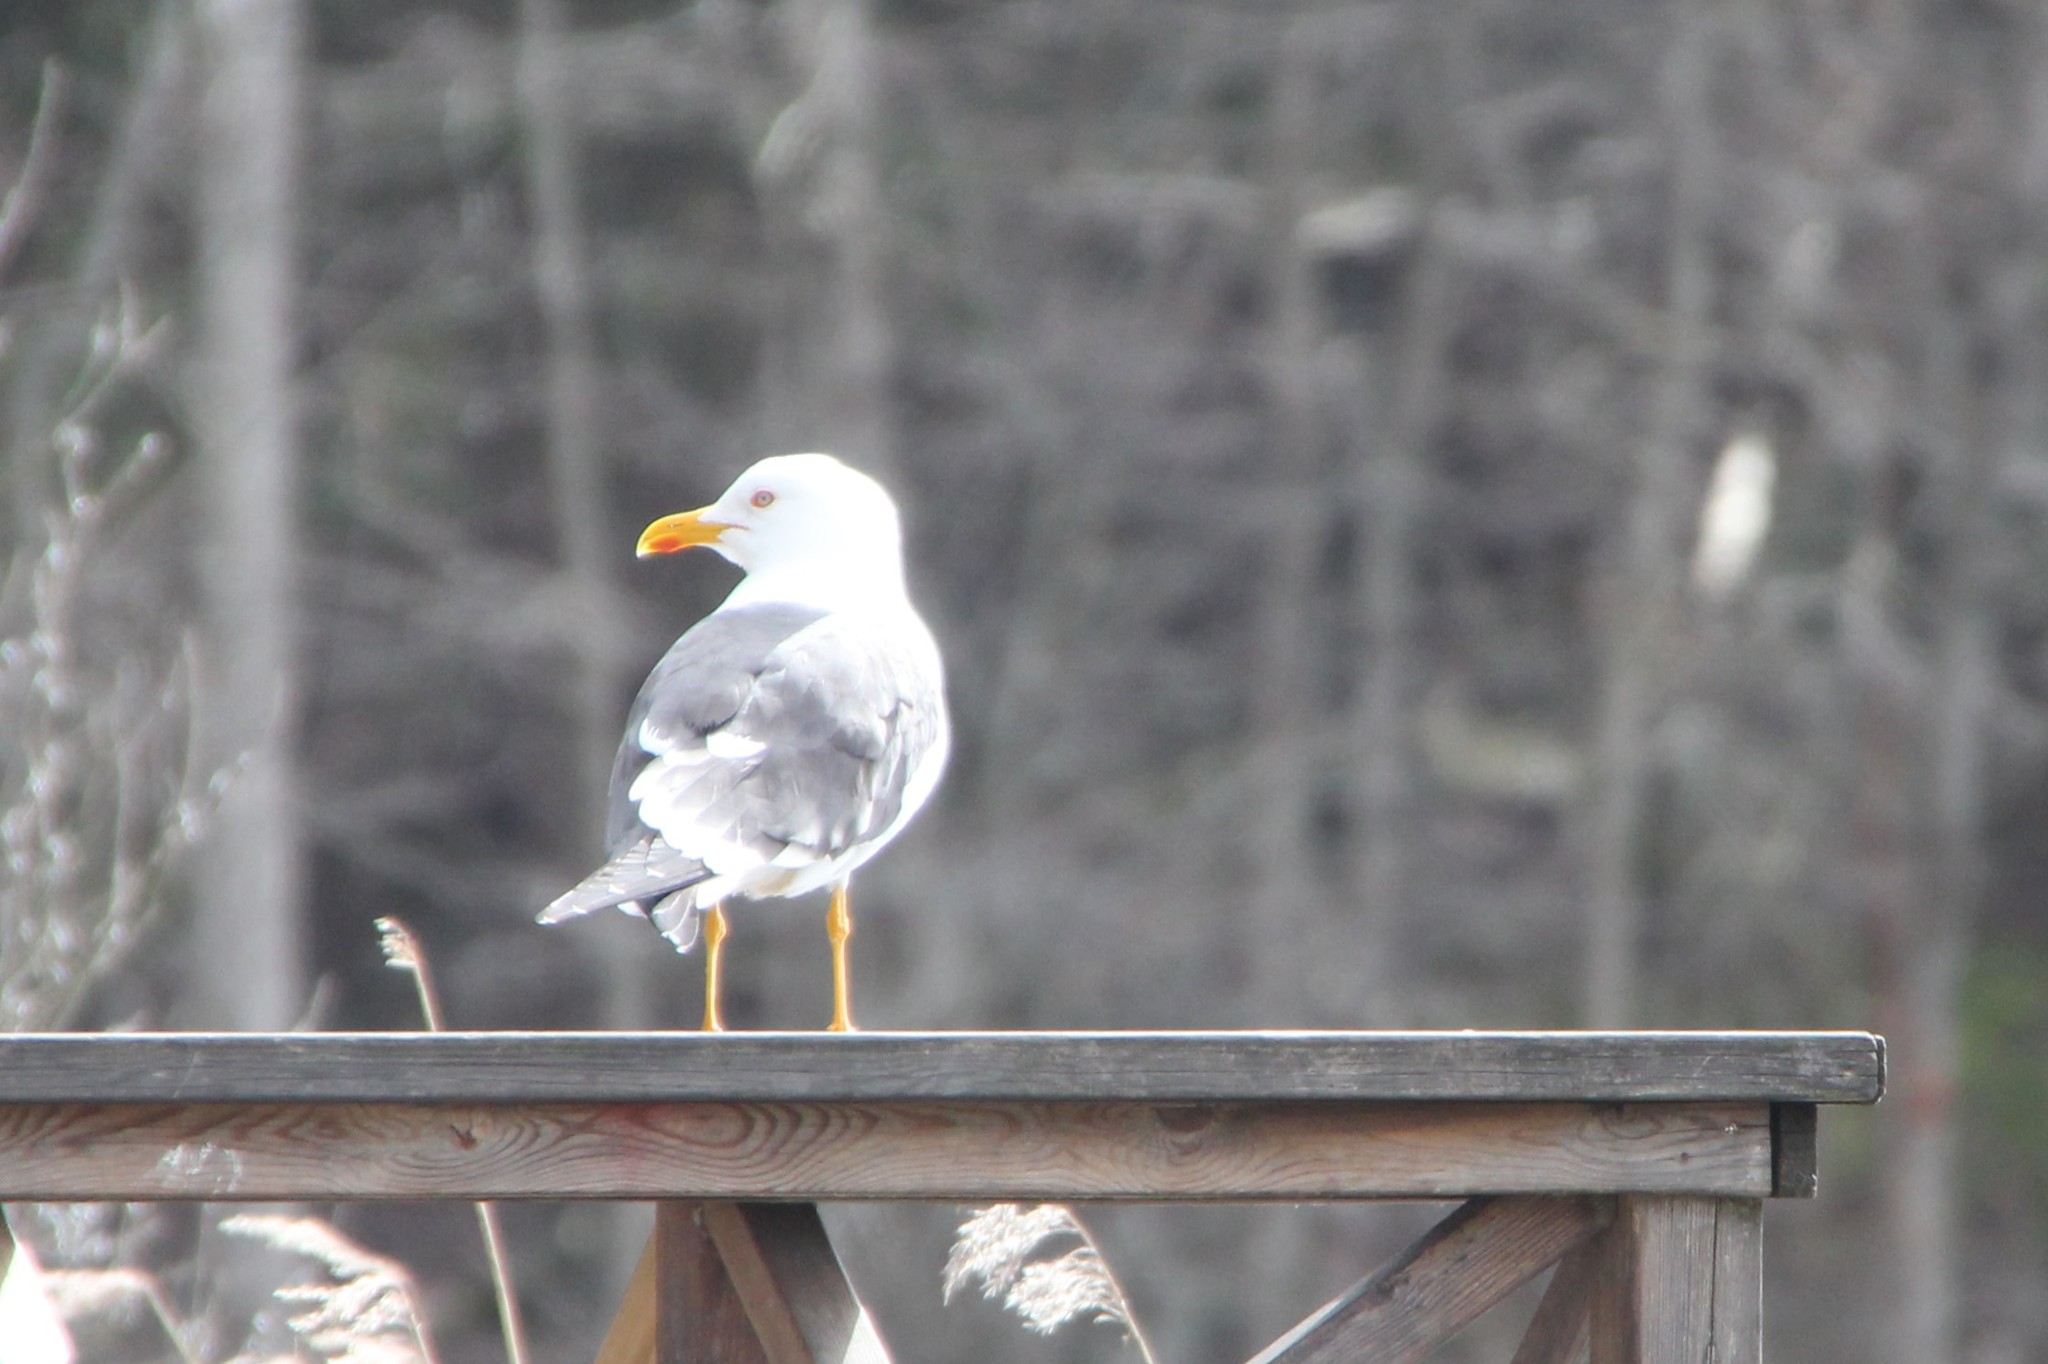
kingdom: Animalia
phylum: Chordata
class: Aves
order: Charadriiformes
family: Laridae
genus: Larus
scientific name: Larus fuscus
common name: Lesser black-backed gull
